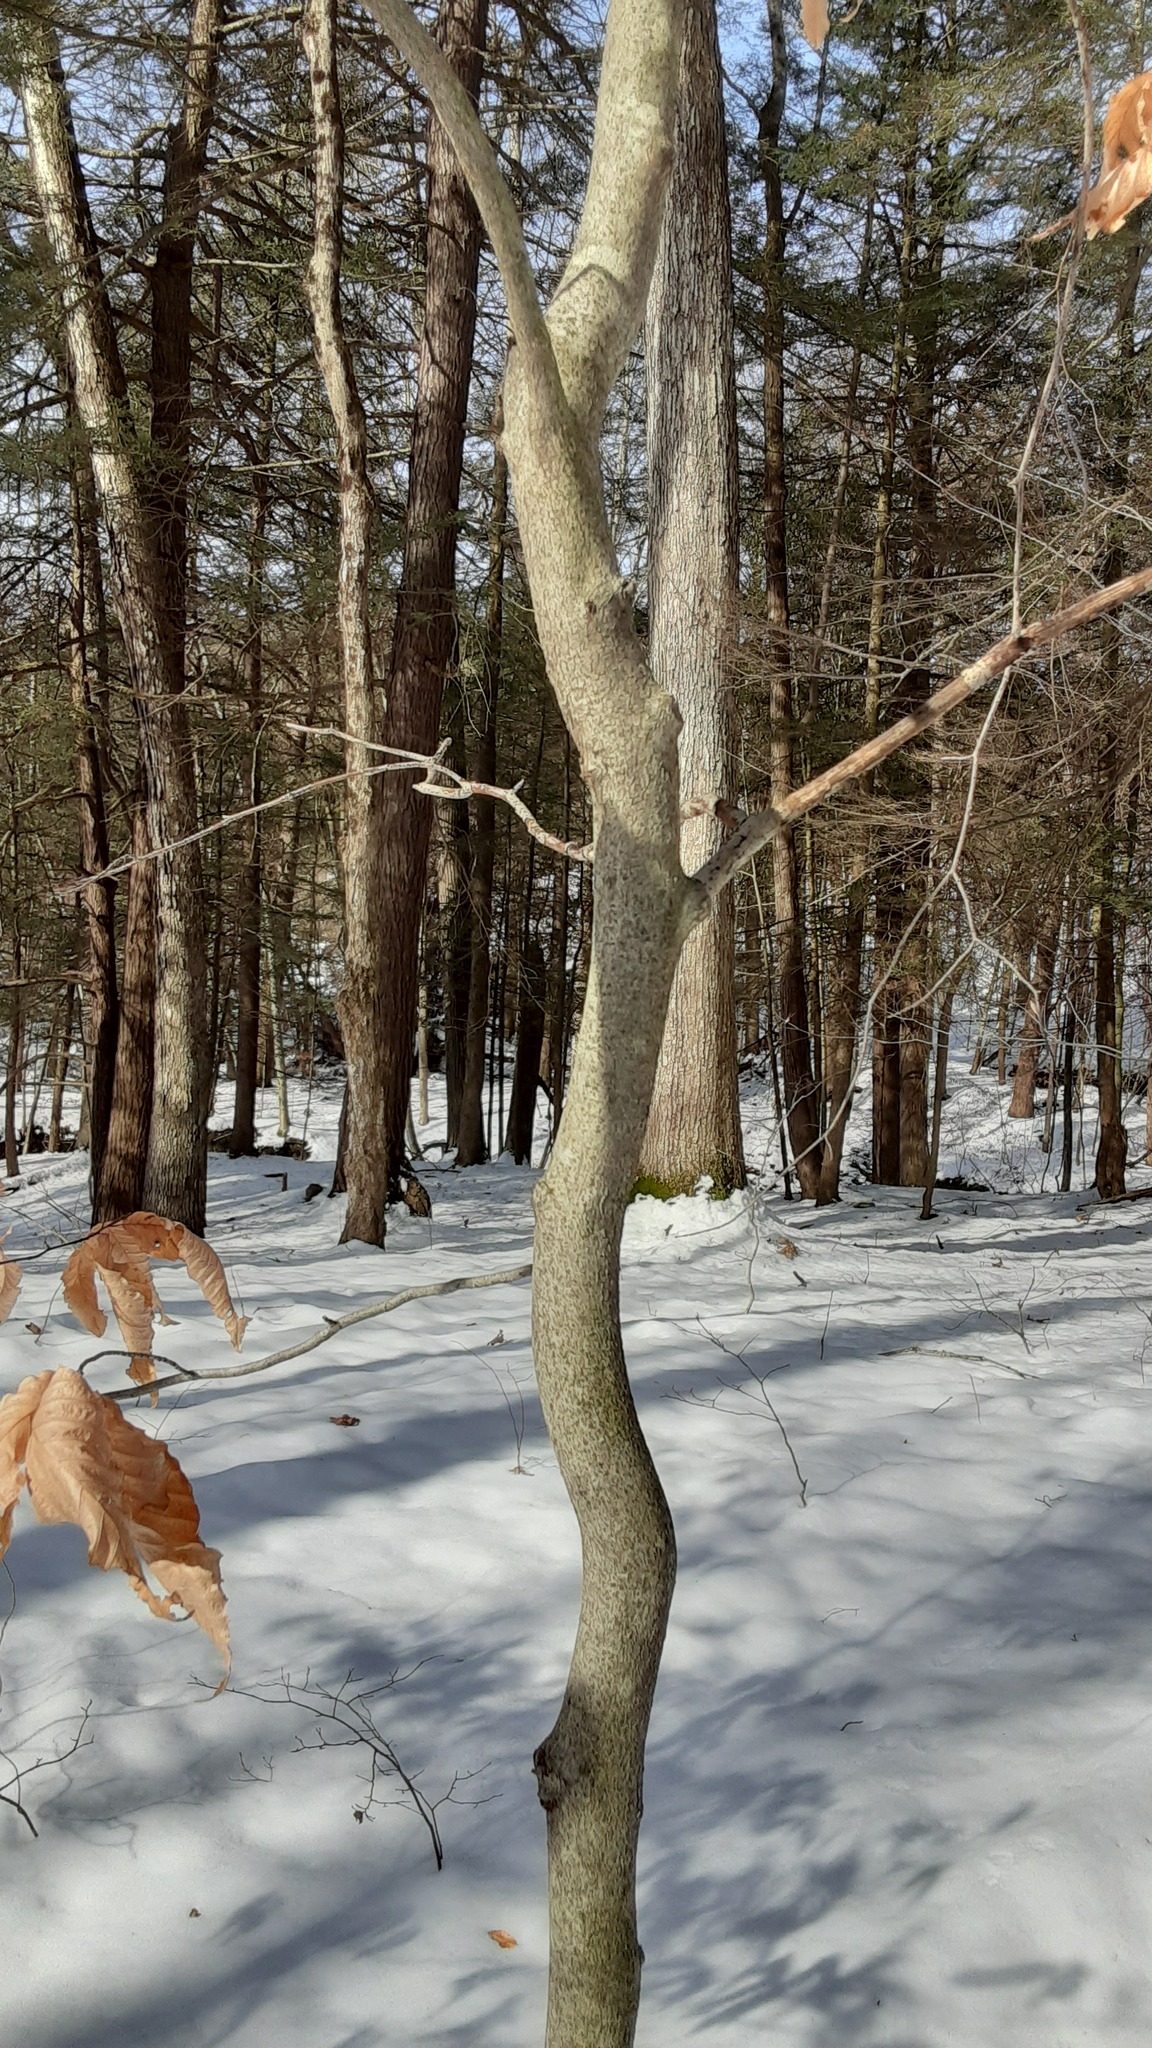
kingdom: Plantae
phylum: Tracheophyta
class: Magnoliopsida
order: Fagales
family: Fagaceae
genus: Fagus
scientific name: Fagus grandifolia
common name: American beech
